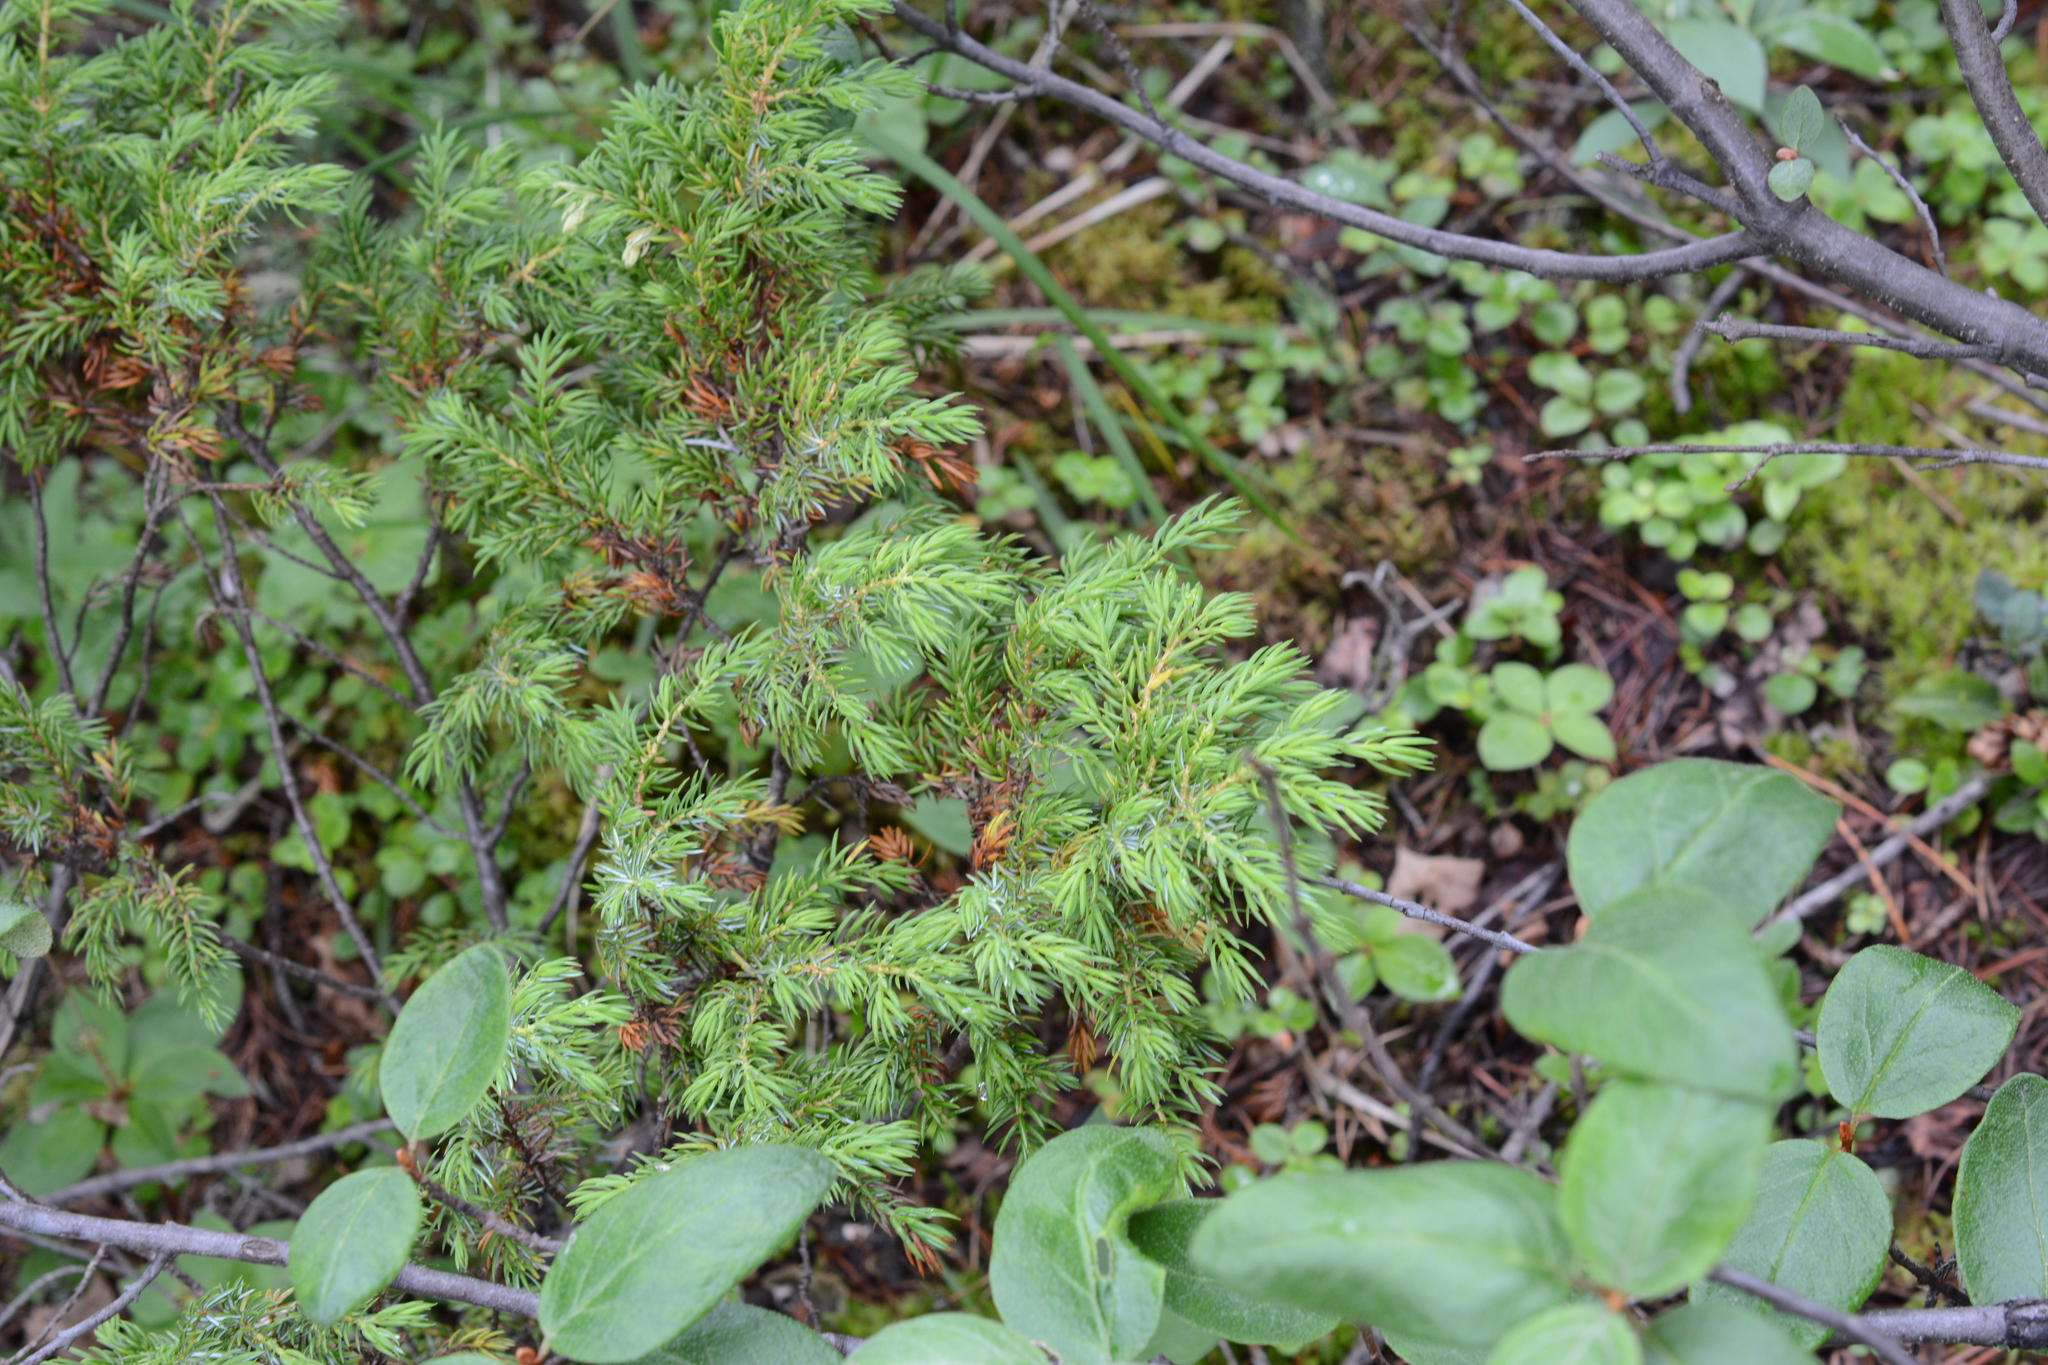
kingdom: Plantae
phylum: Tracheophyta
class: Pinopsida
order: Pinales
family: Cupressaceae
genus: Juniperus
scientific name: Juniperus communis
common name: Common juniper
